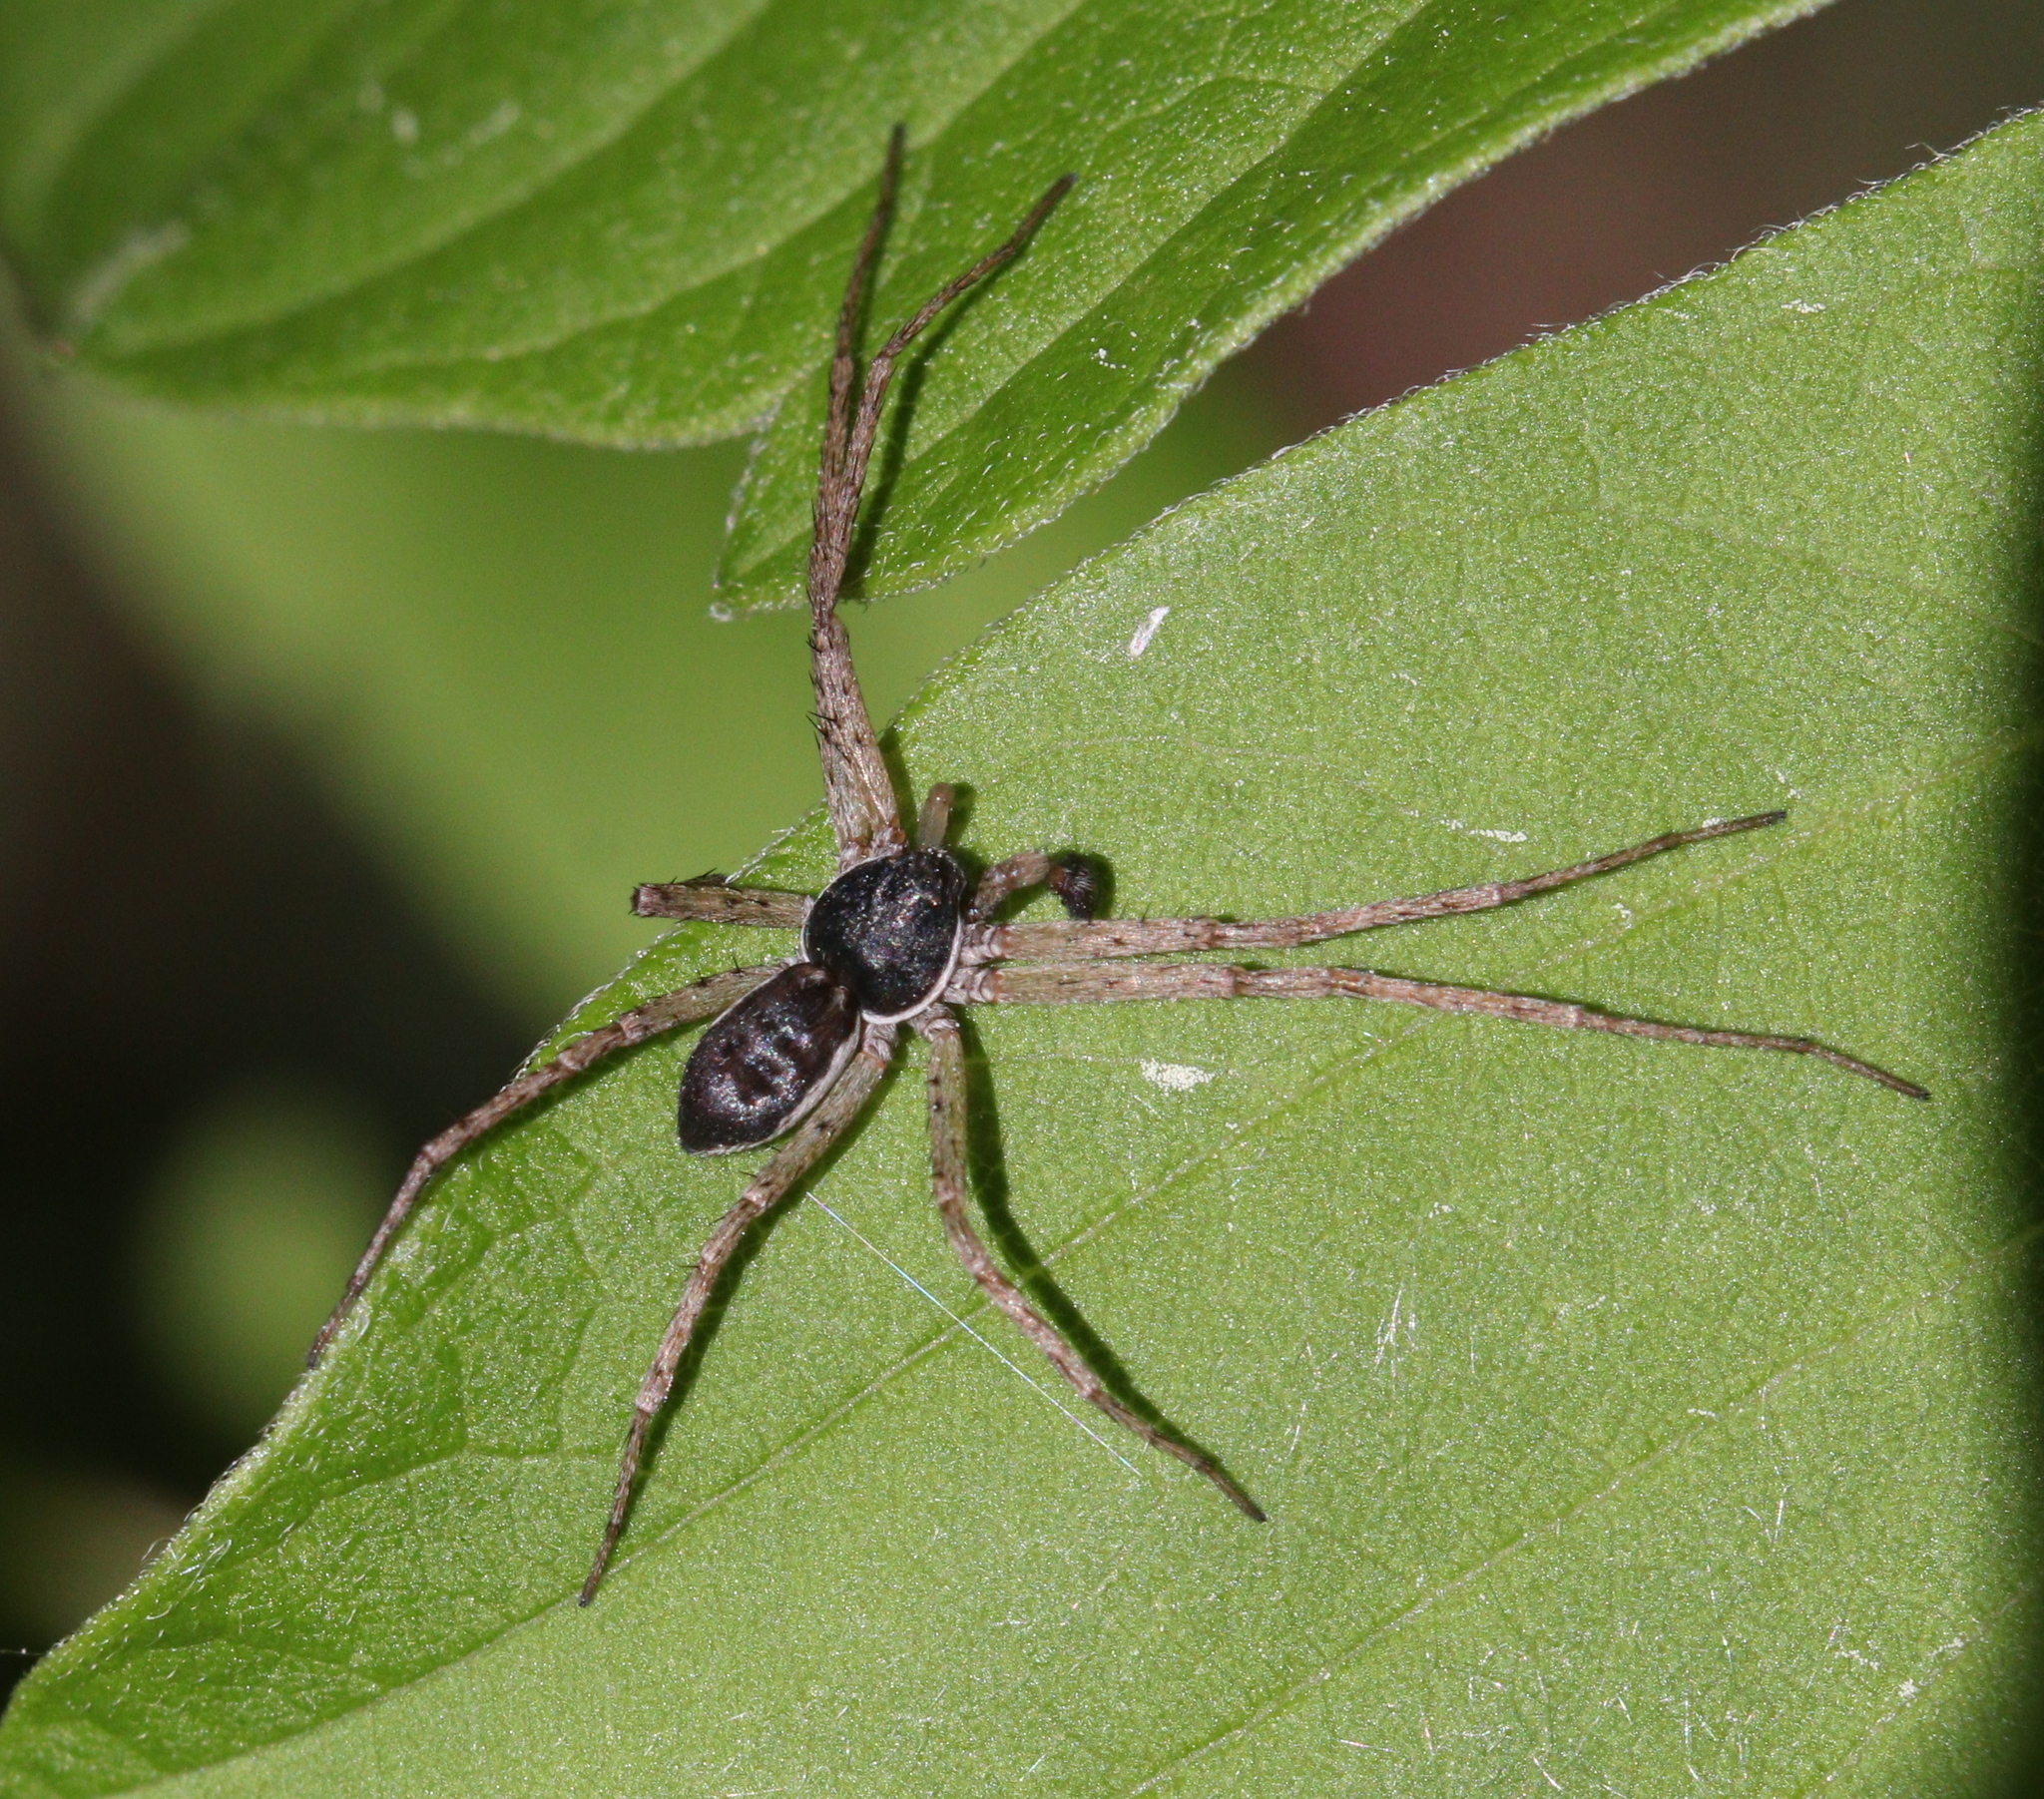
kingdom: Animalia
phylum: Arthropoda
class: Arachnida
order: Araneae
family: Philodromidae
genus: Philodromus
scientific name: Philodromus dispar
